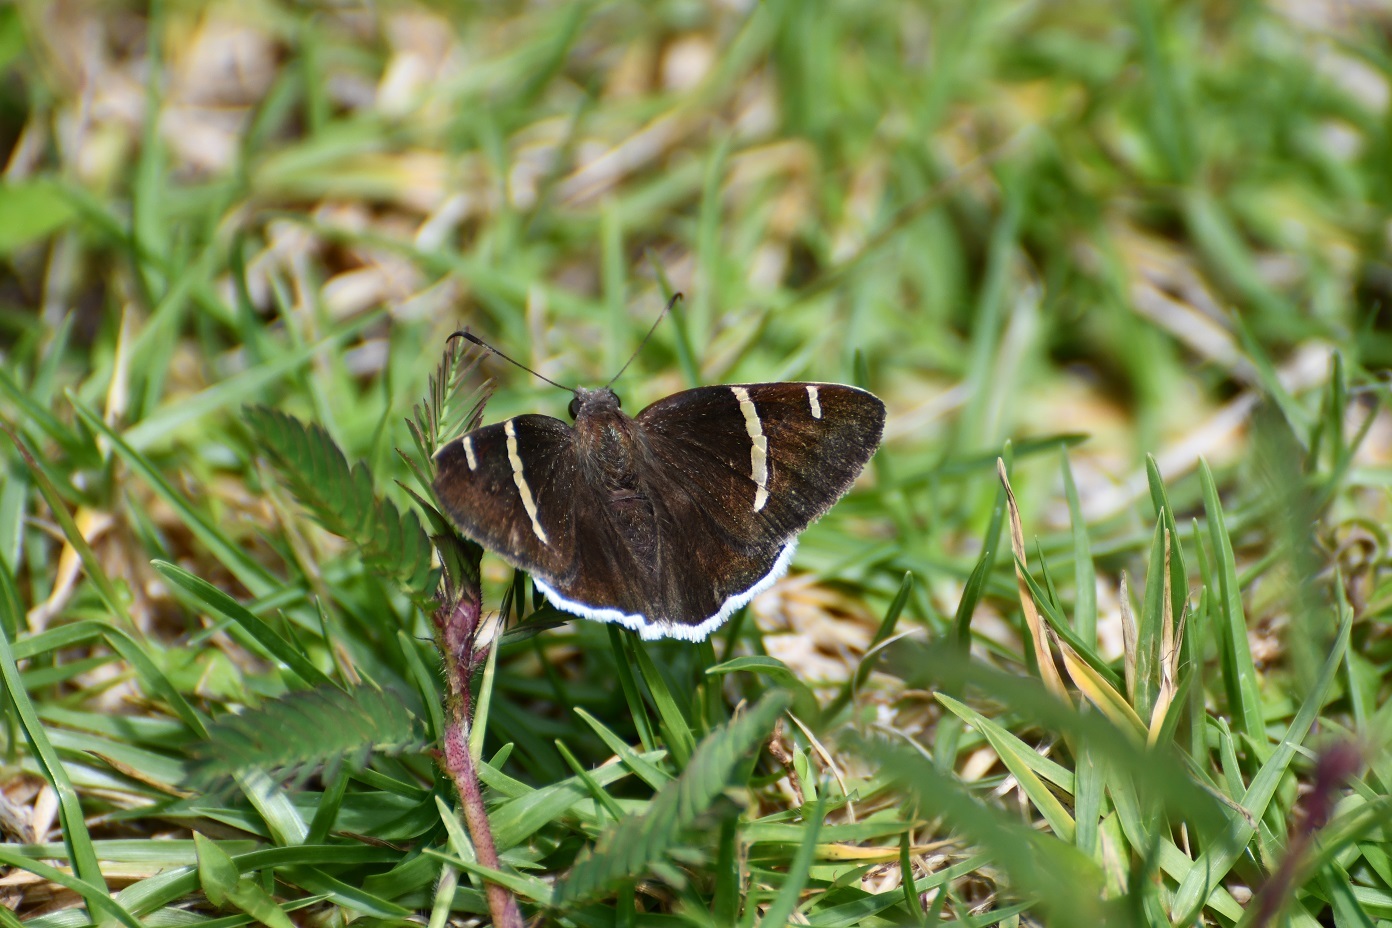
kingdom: Animalia
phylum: Arthropoda
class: Insecta
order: Lepidoptera
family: Hesperiidae
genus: Thorybes
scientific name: Thorybes cincta
